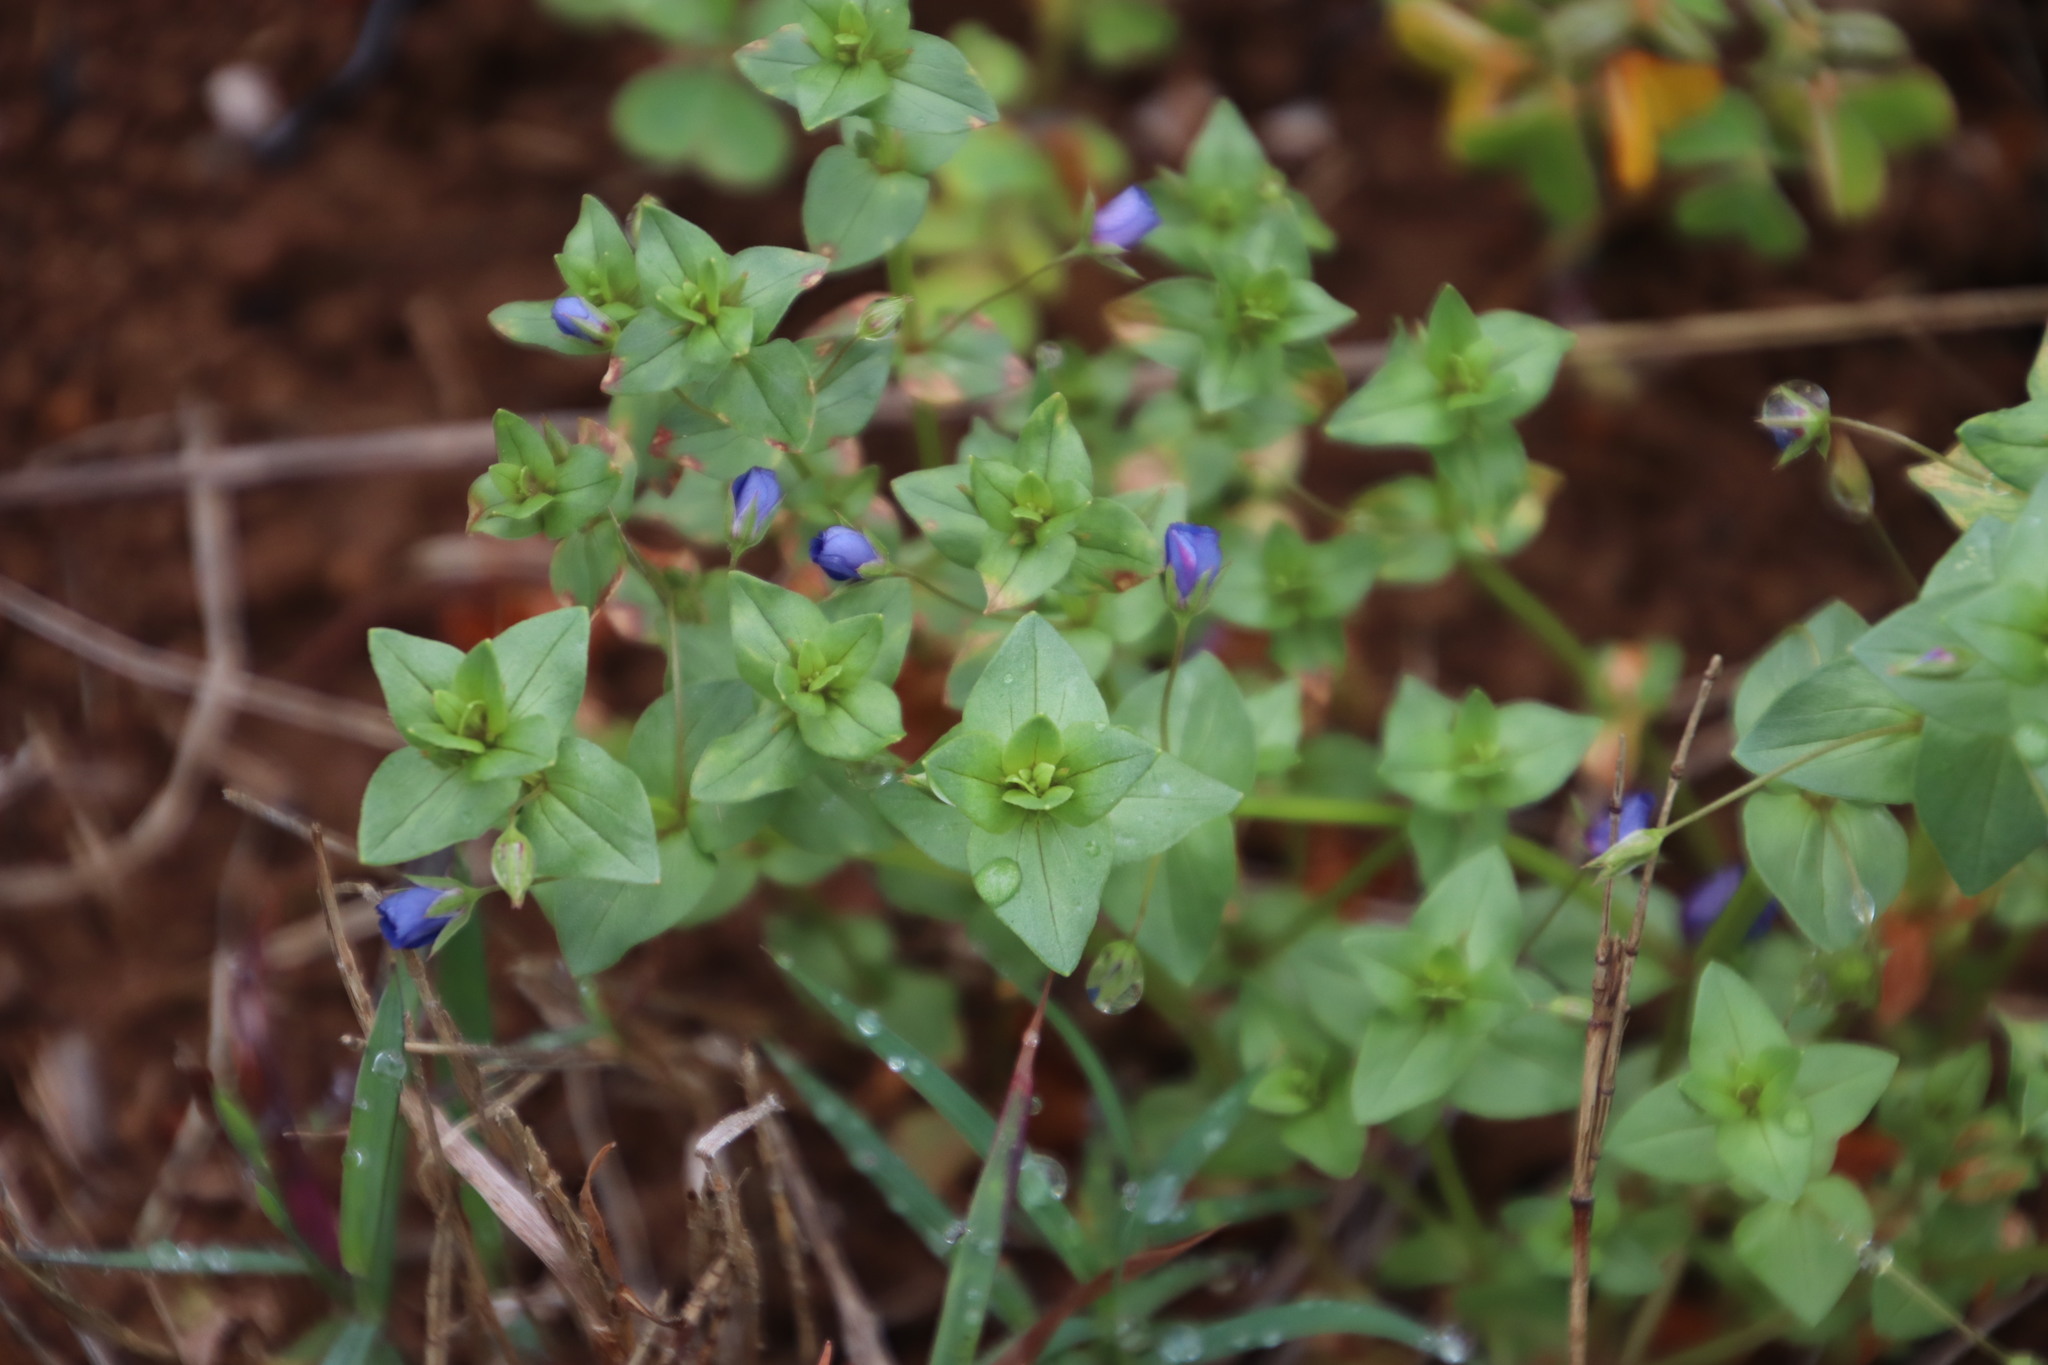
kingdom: Plantae
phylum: Tracheophyta
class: Magnoliopsida
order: Ericales
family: Primulaceae
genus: Lysimachia
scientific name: Lysimachia loeflingii
